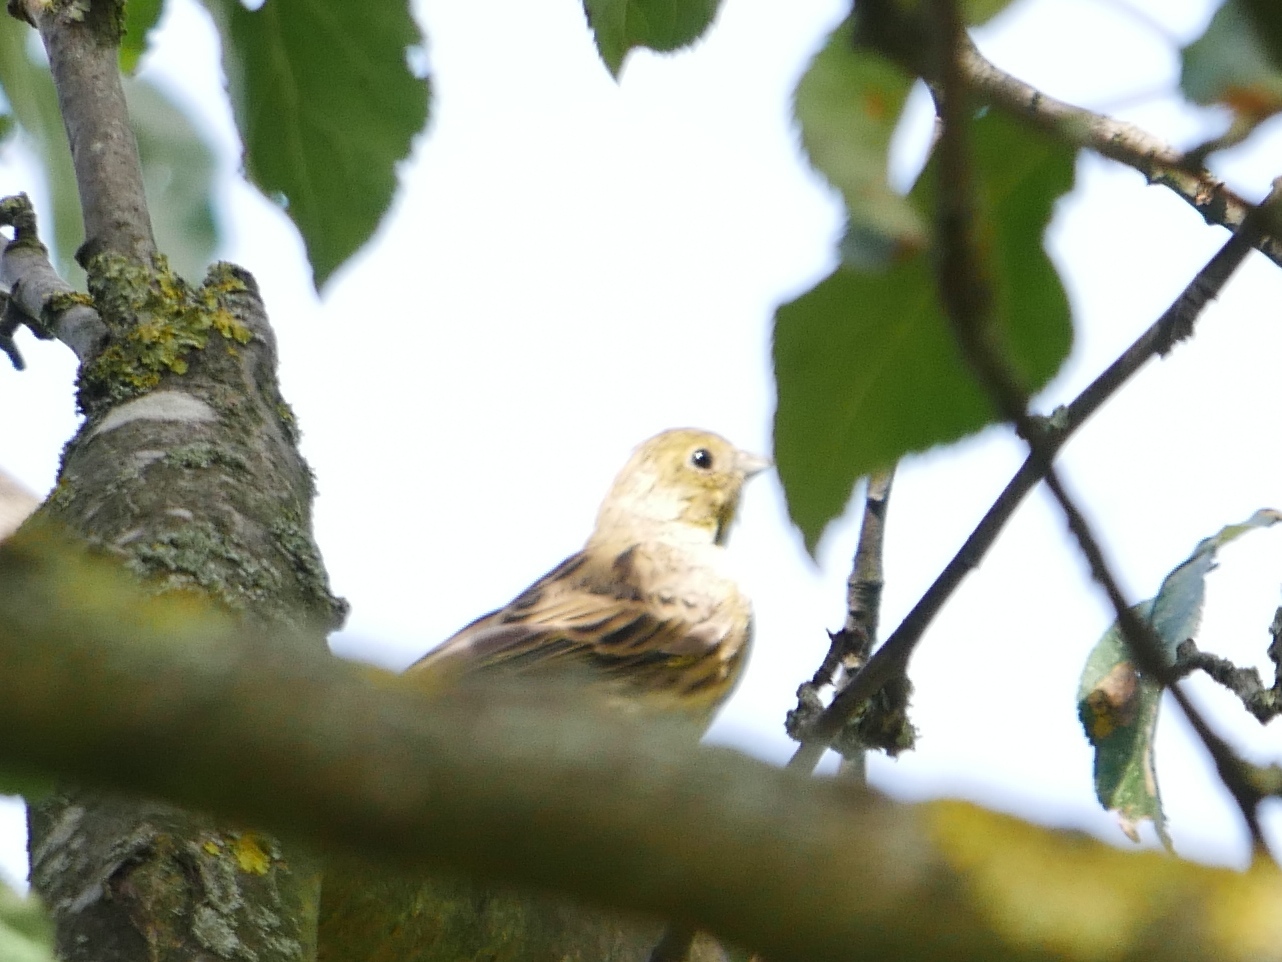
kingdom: Animalia
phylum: Chordata
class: Aves
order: Passeriformes
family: Emberizidae
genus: Emberiza
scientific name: Emberiza citrinella
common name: Yellowhammer
